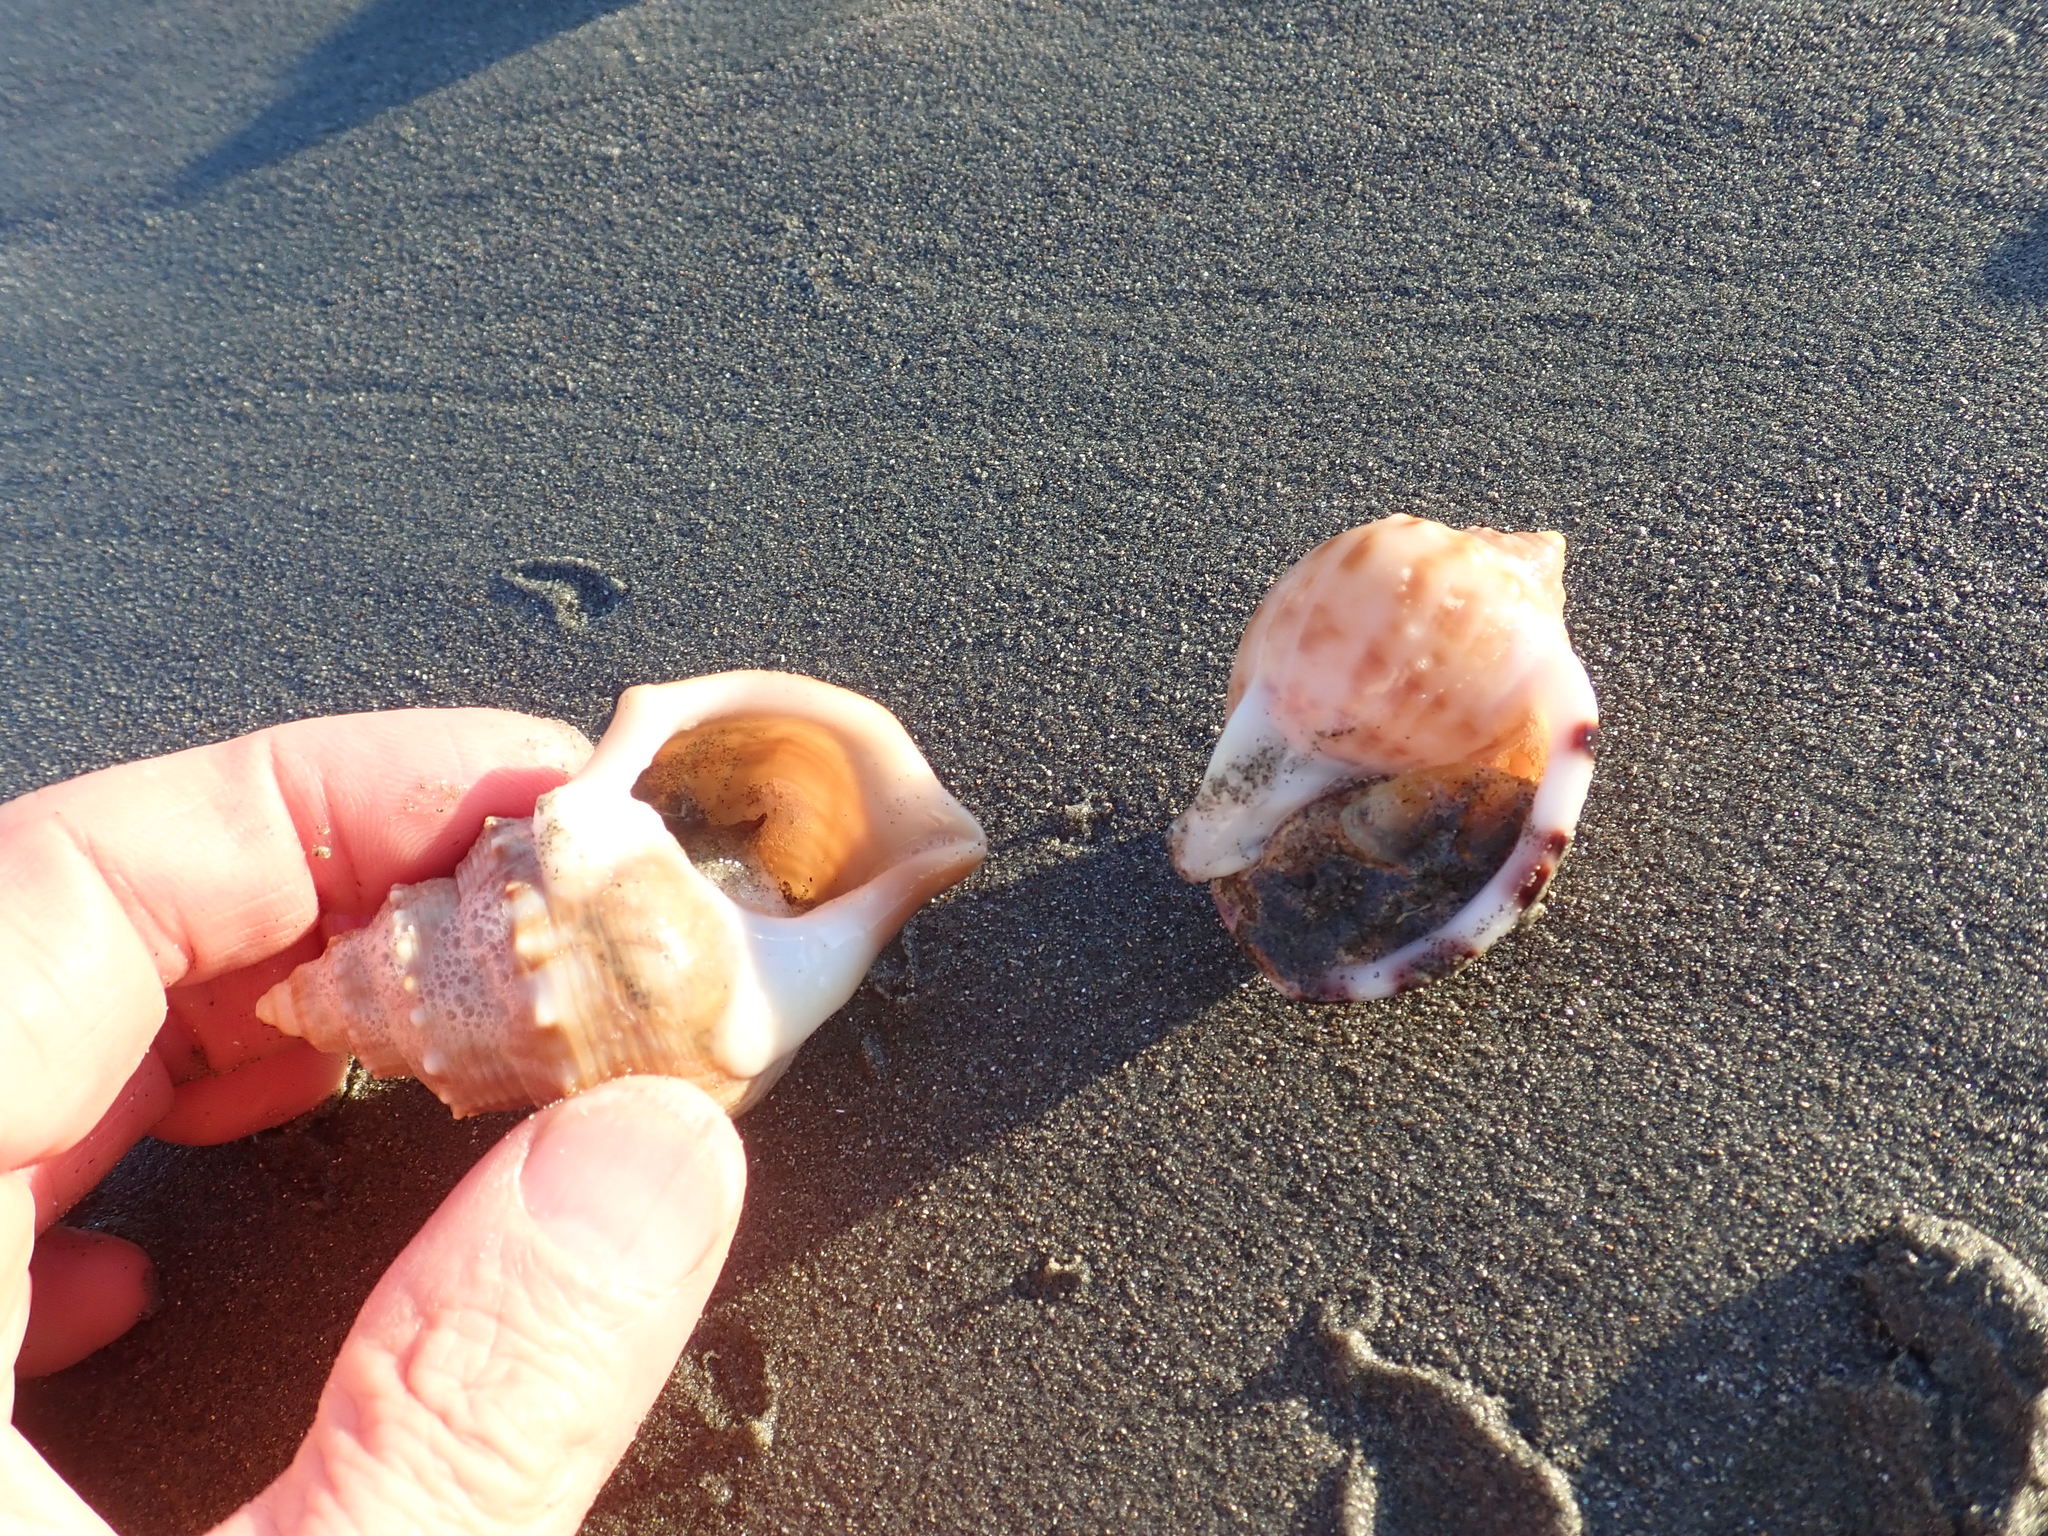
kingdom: Animalia
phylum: Mollusca
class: Gastropoda
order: Littorinimorpha
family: Struthiolariidae
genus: Struthiolaria
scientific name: Struthiolaria papulosa
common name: Large ostrich foot
